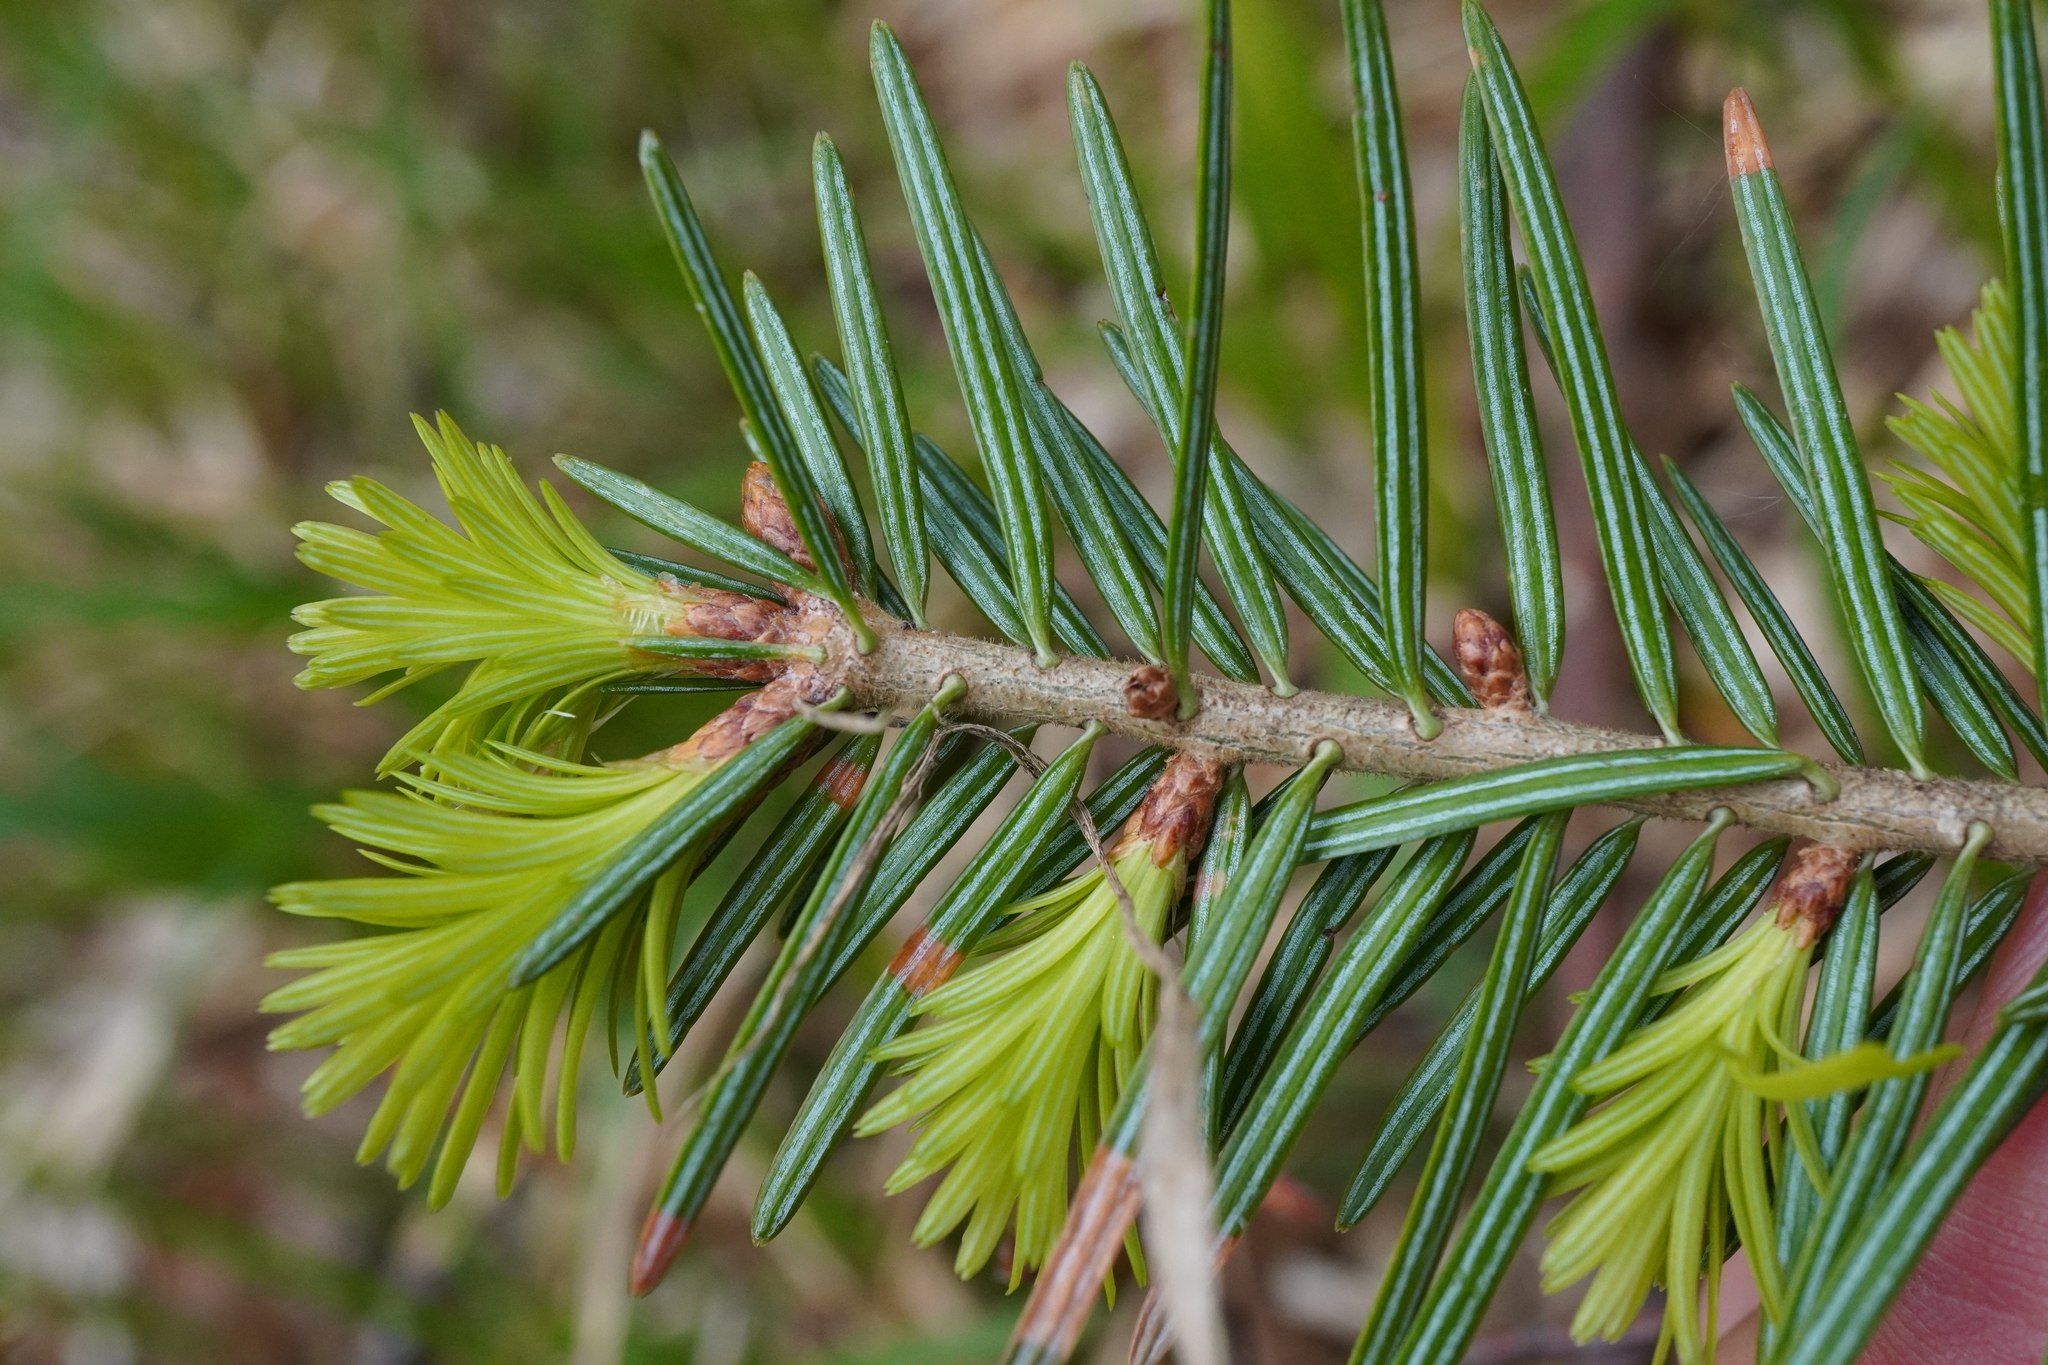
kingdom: Plantae
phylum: Tracheophyta
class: Pinopsida
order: Pinales
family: Pinaceae
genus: Abies
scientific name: Abies alba
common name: Silver fir
